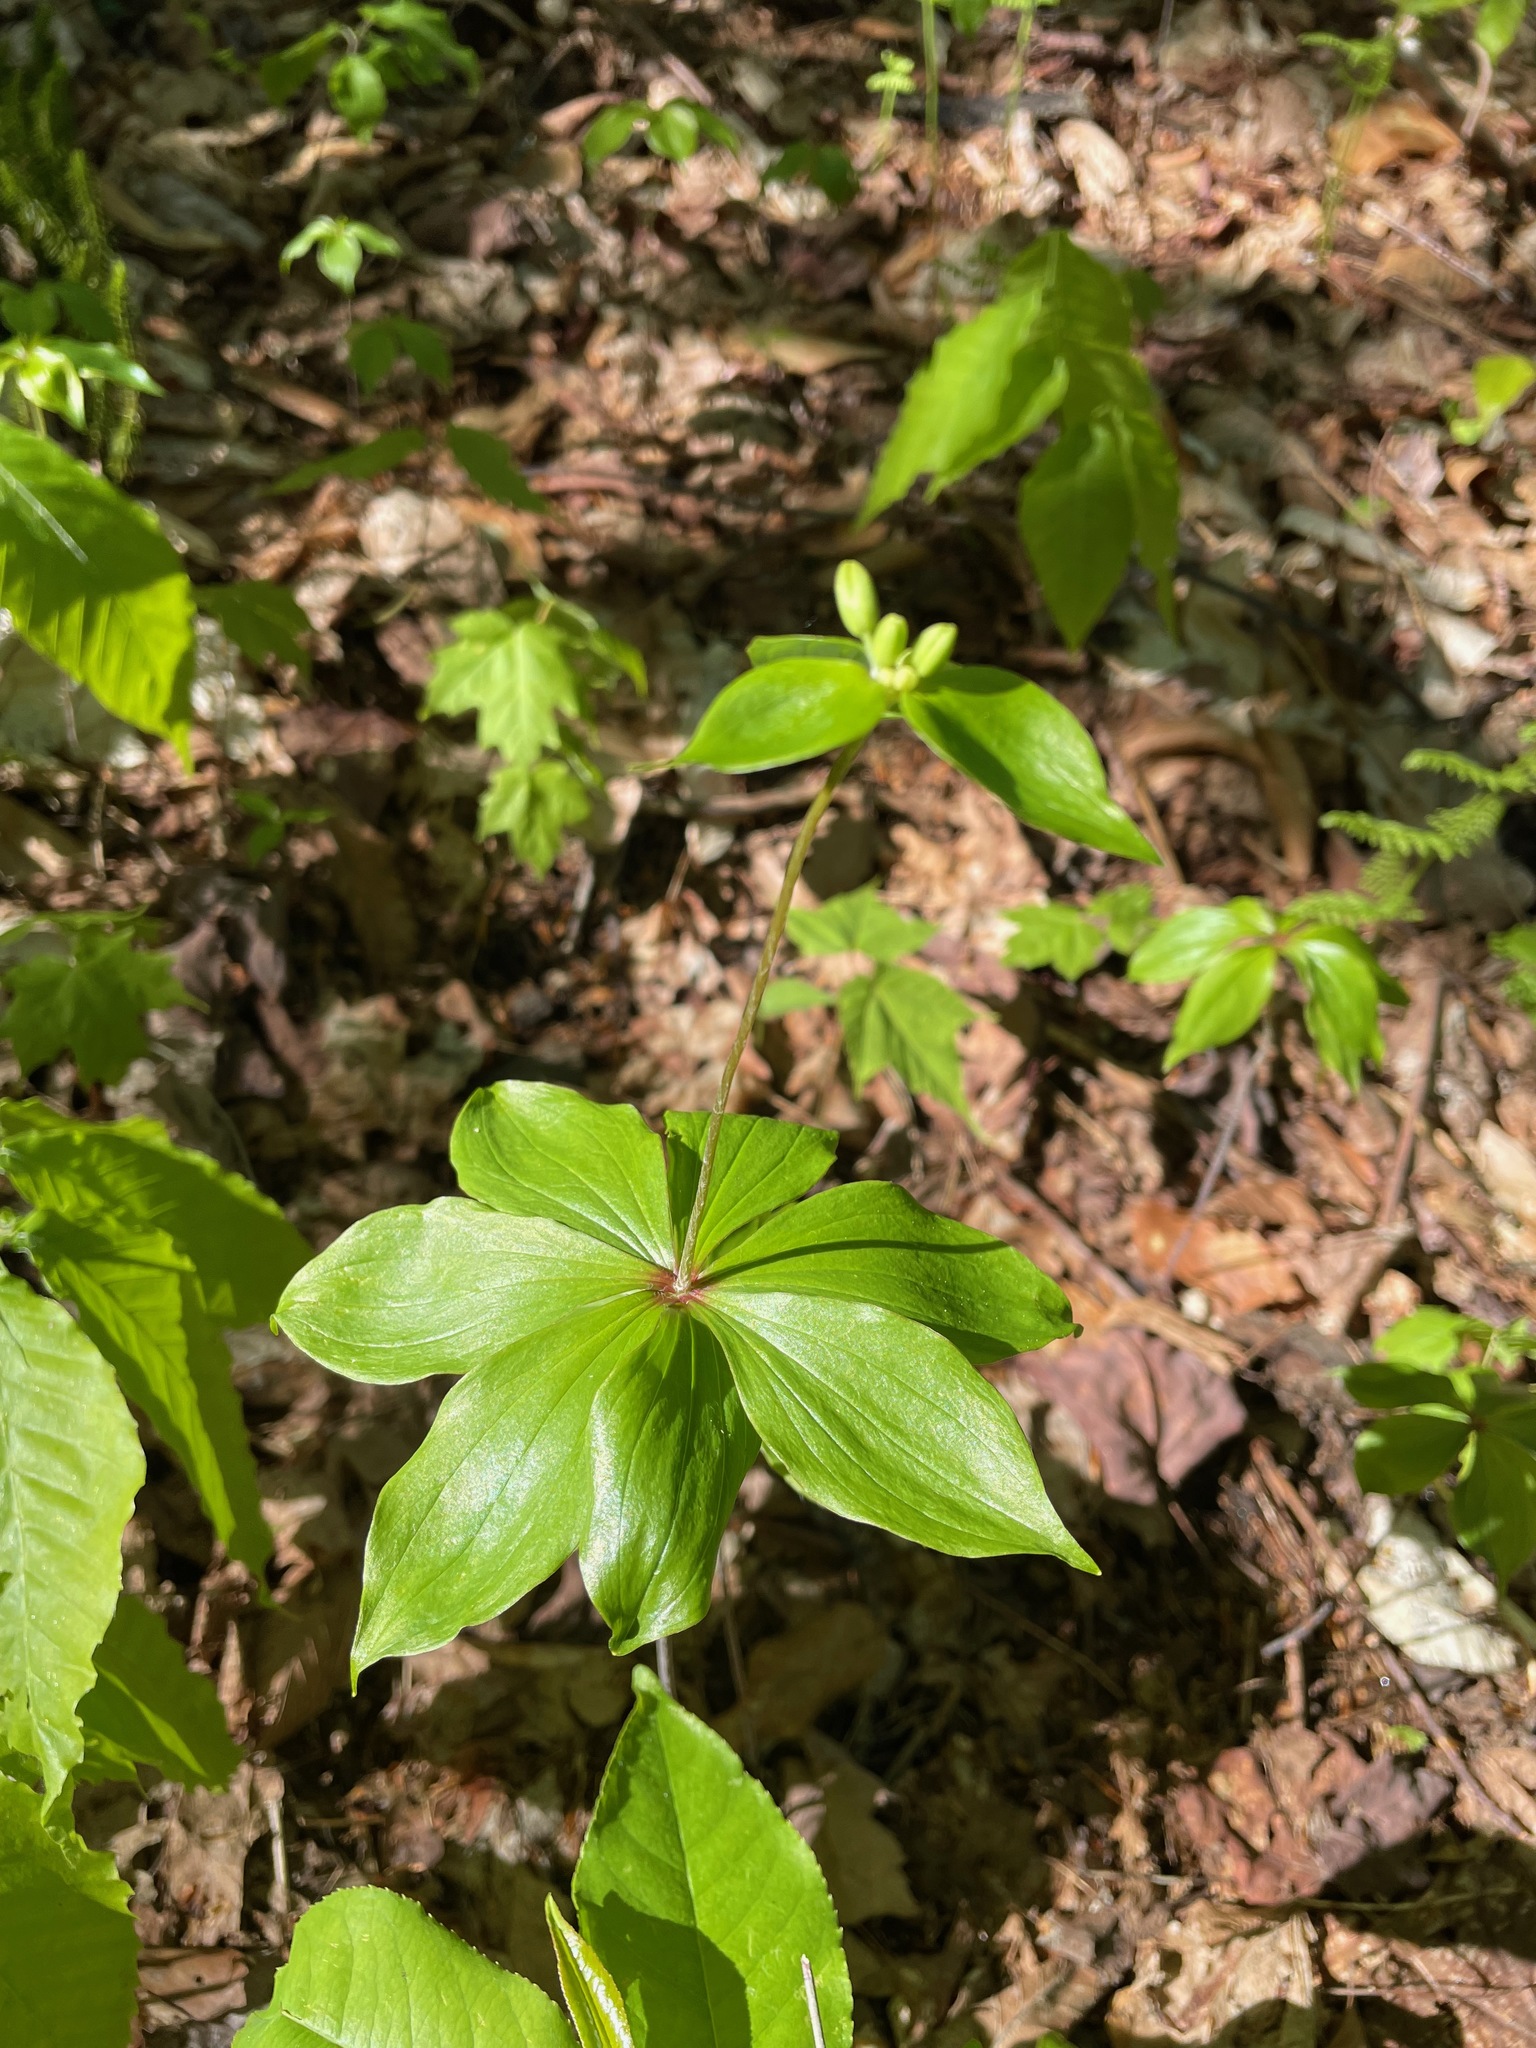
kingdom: Plantae
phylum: Tracheophyta
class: Liliopsida
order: Liliales
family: Liliaceae
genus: Medeola
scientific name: Medeola virginiana
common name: Indian cucumber-root
